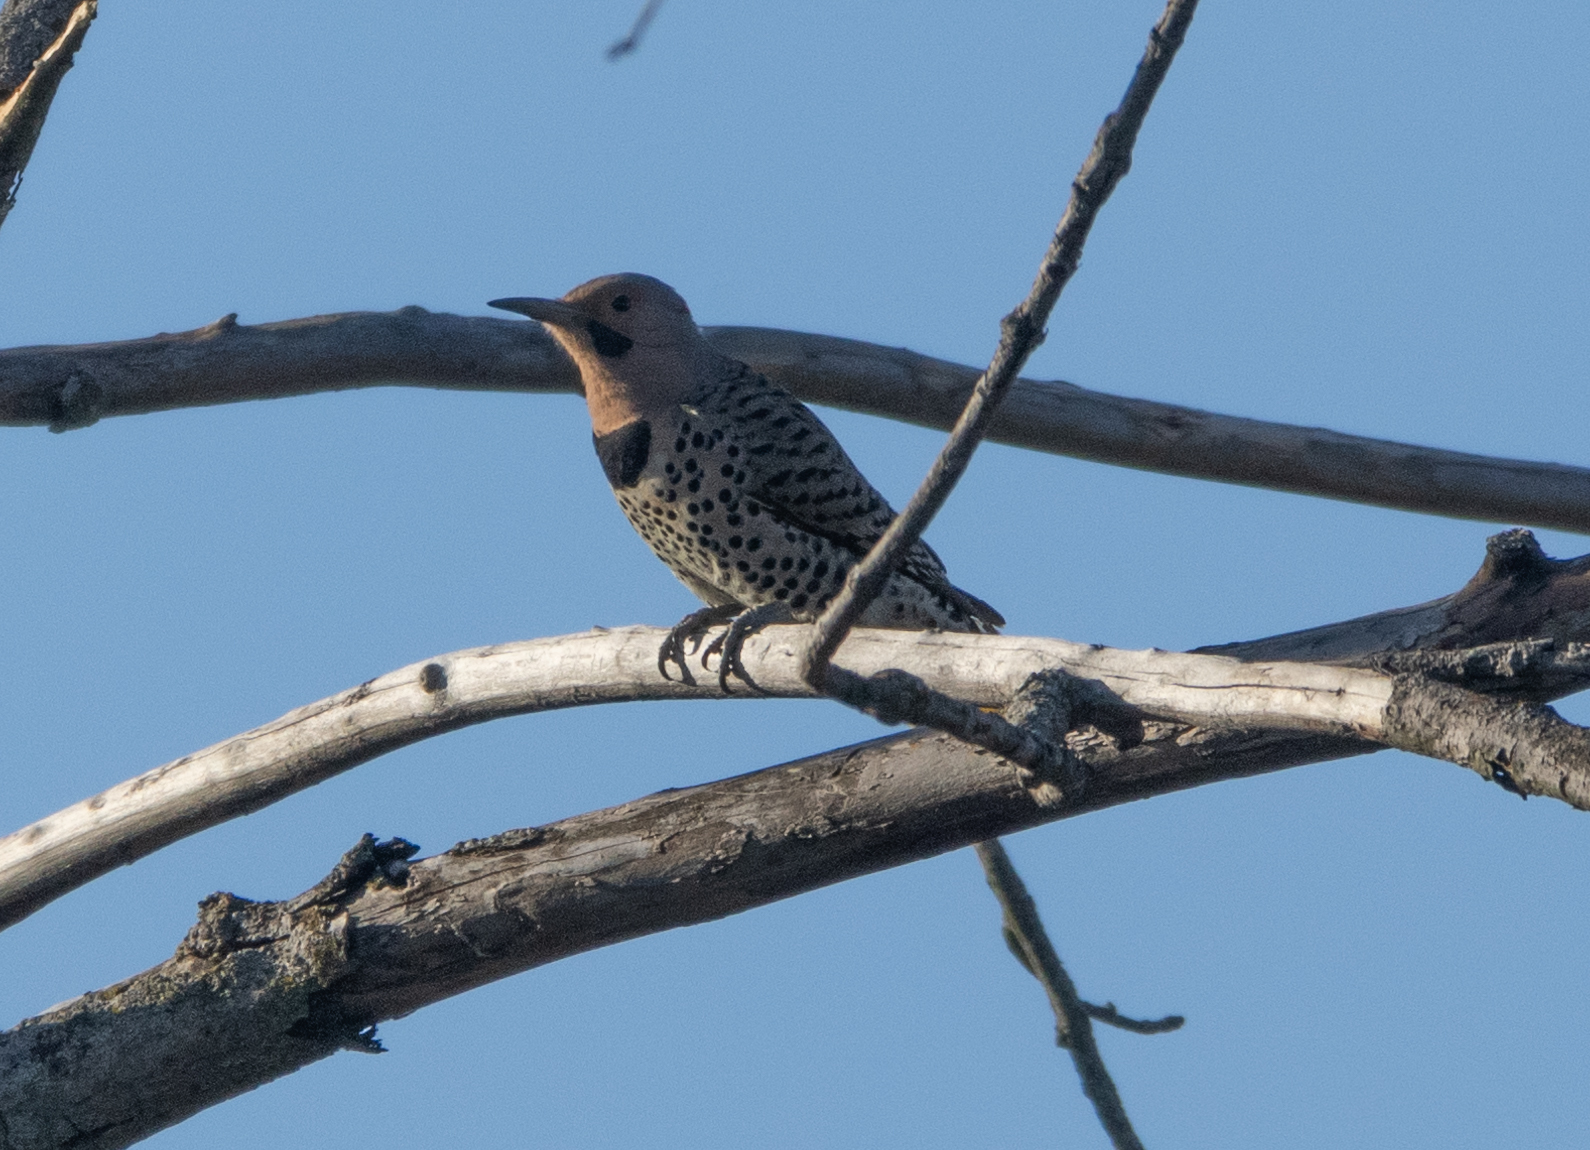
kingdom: Animalia
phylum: Chordata
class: Aves
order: Piciformes
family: Picidae
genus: Colaptes
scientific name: Colaptes auratus
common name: Northern flicker
